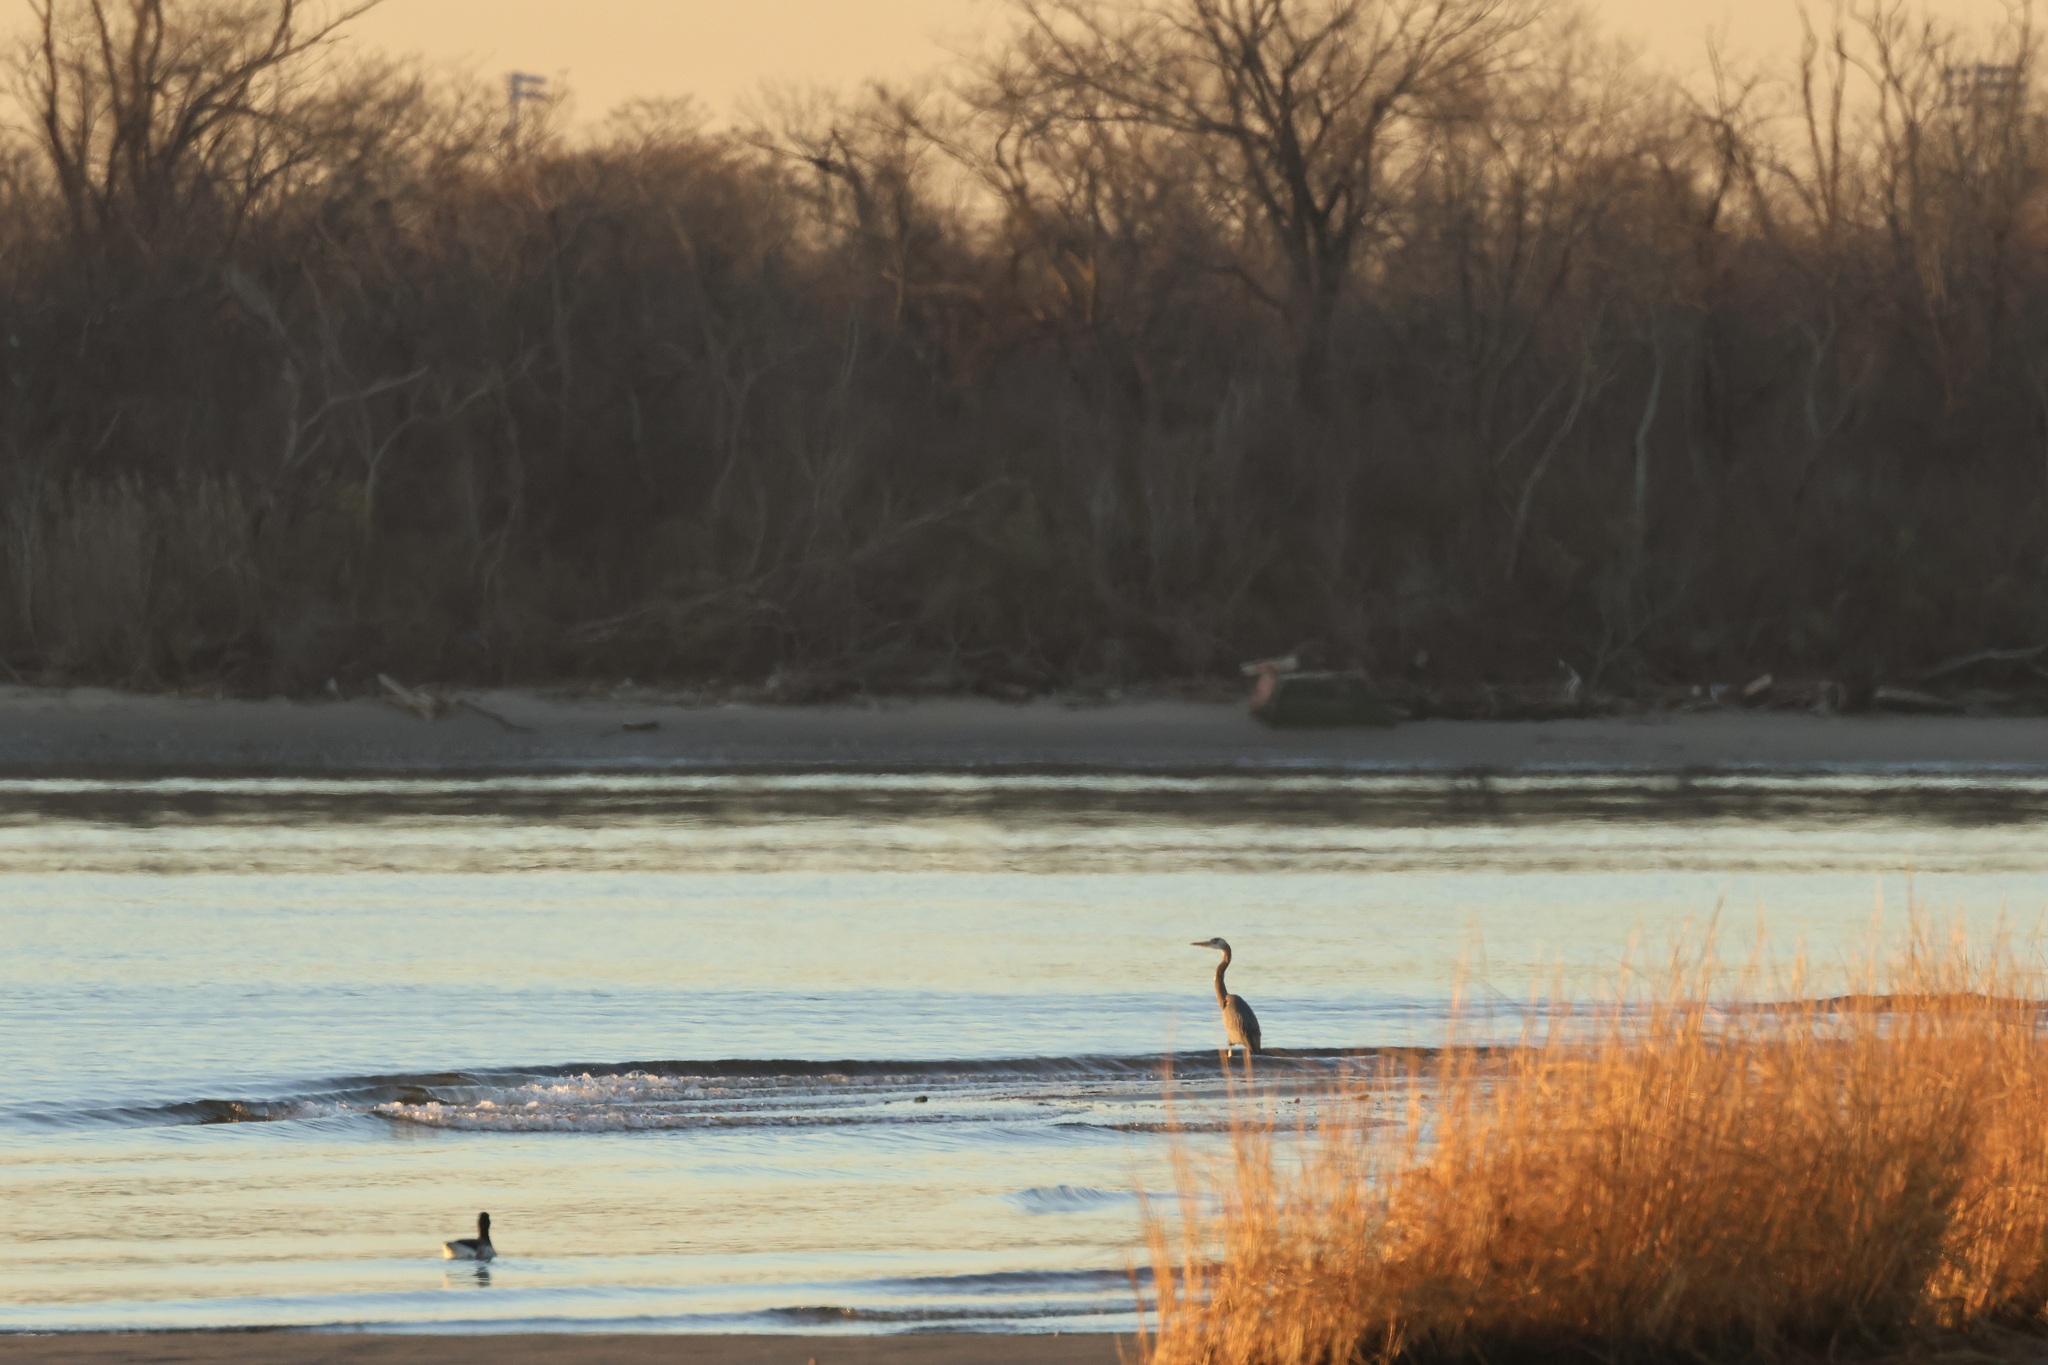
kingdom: Animalia
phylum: Chordata
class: Aves
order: Pelecaniformes
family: Ardeidae
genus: Ardea
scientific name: Ardea herodias
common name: Great blue heron
